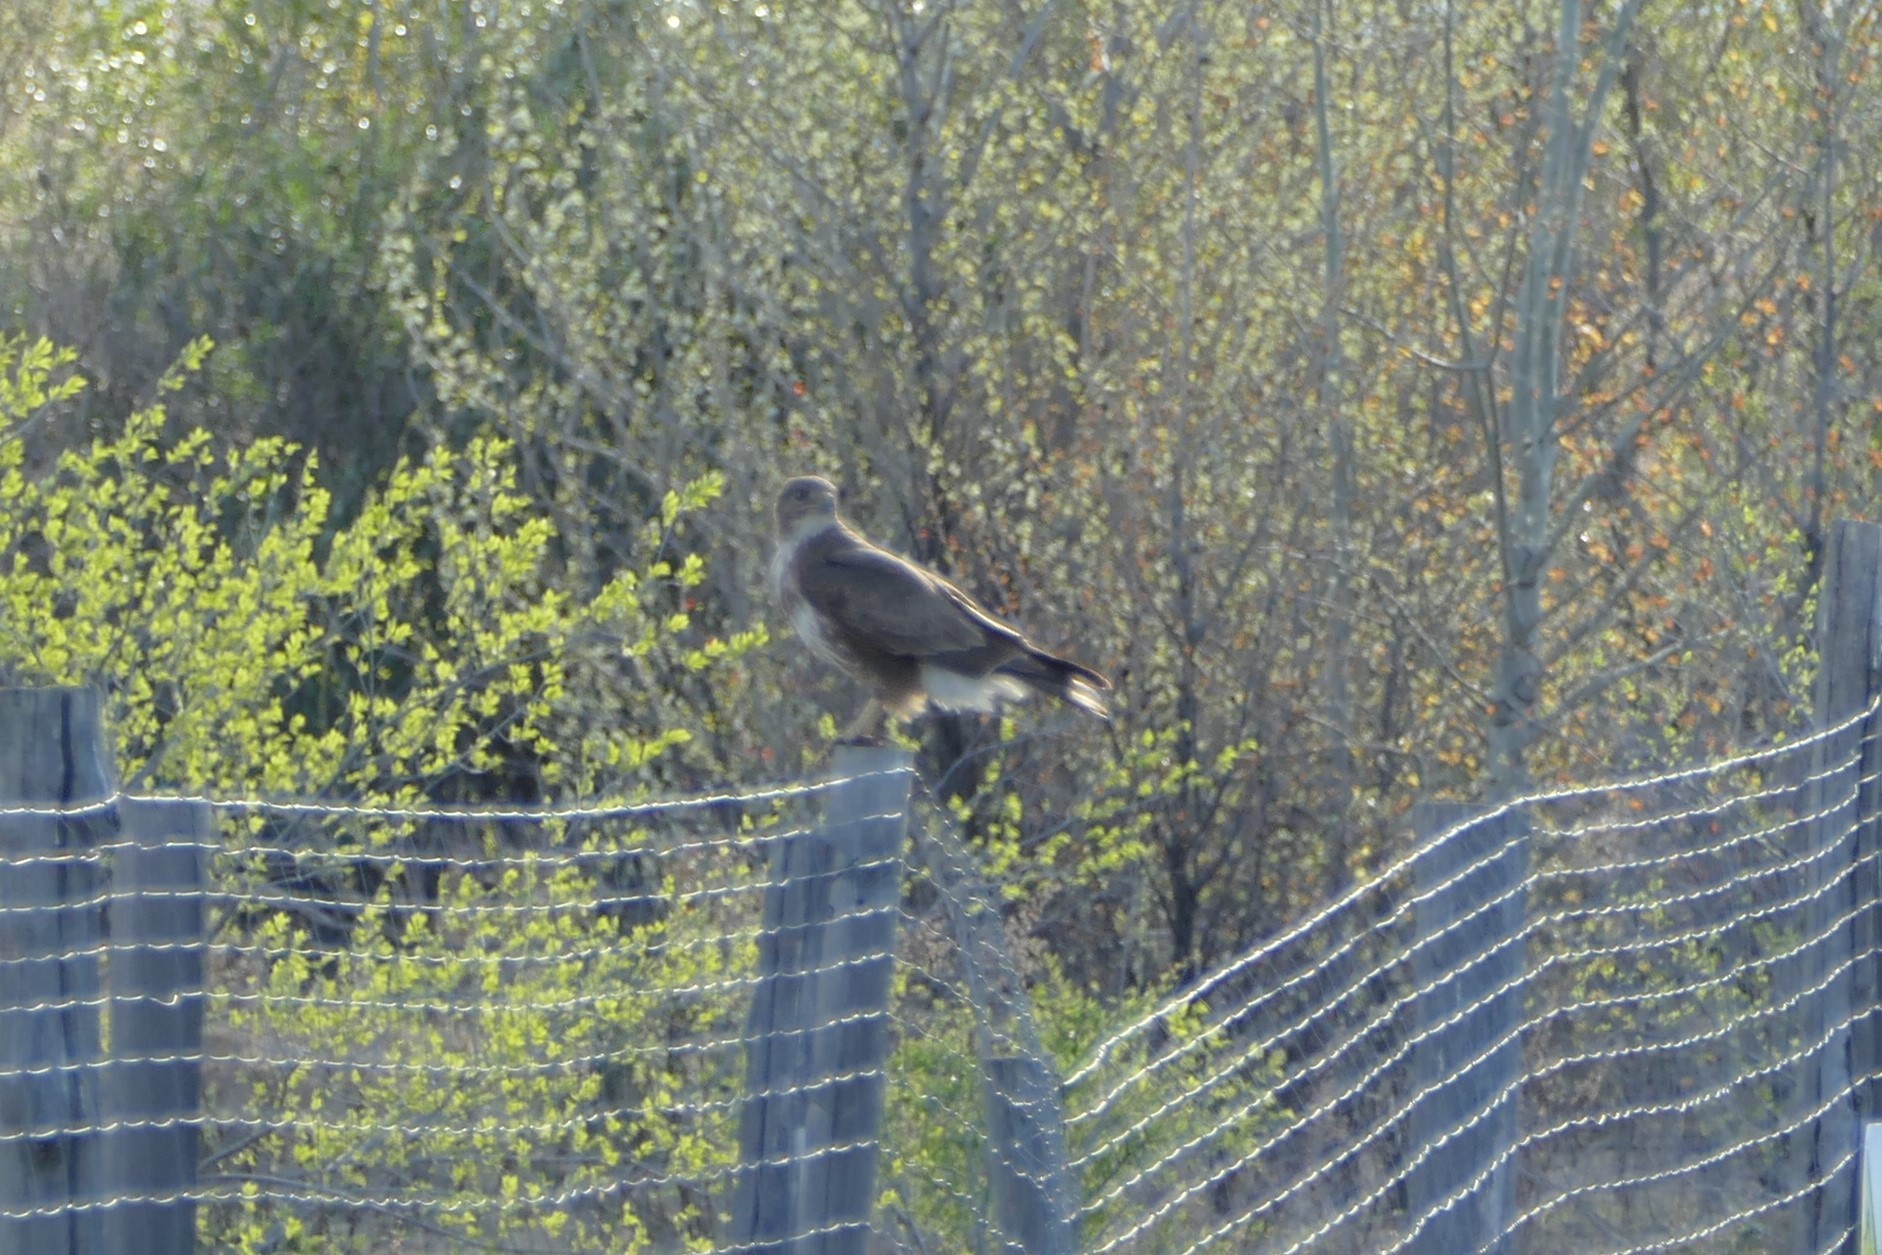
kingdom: Animalia
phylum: Chordata
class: Aves
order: Accipitriformes
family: Accipitridae
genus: Buteo
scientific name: Buteo buteo
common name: Common buzzard
